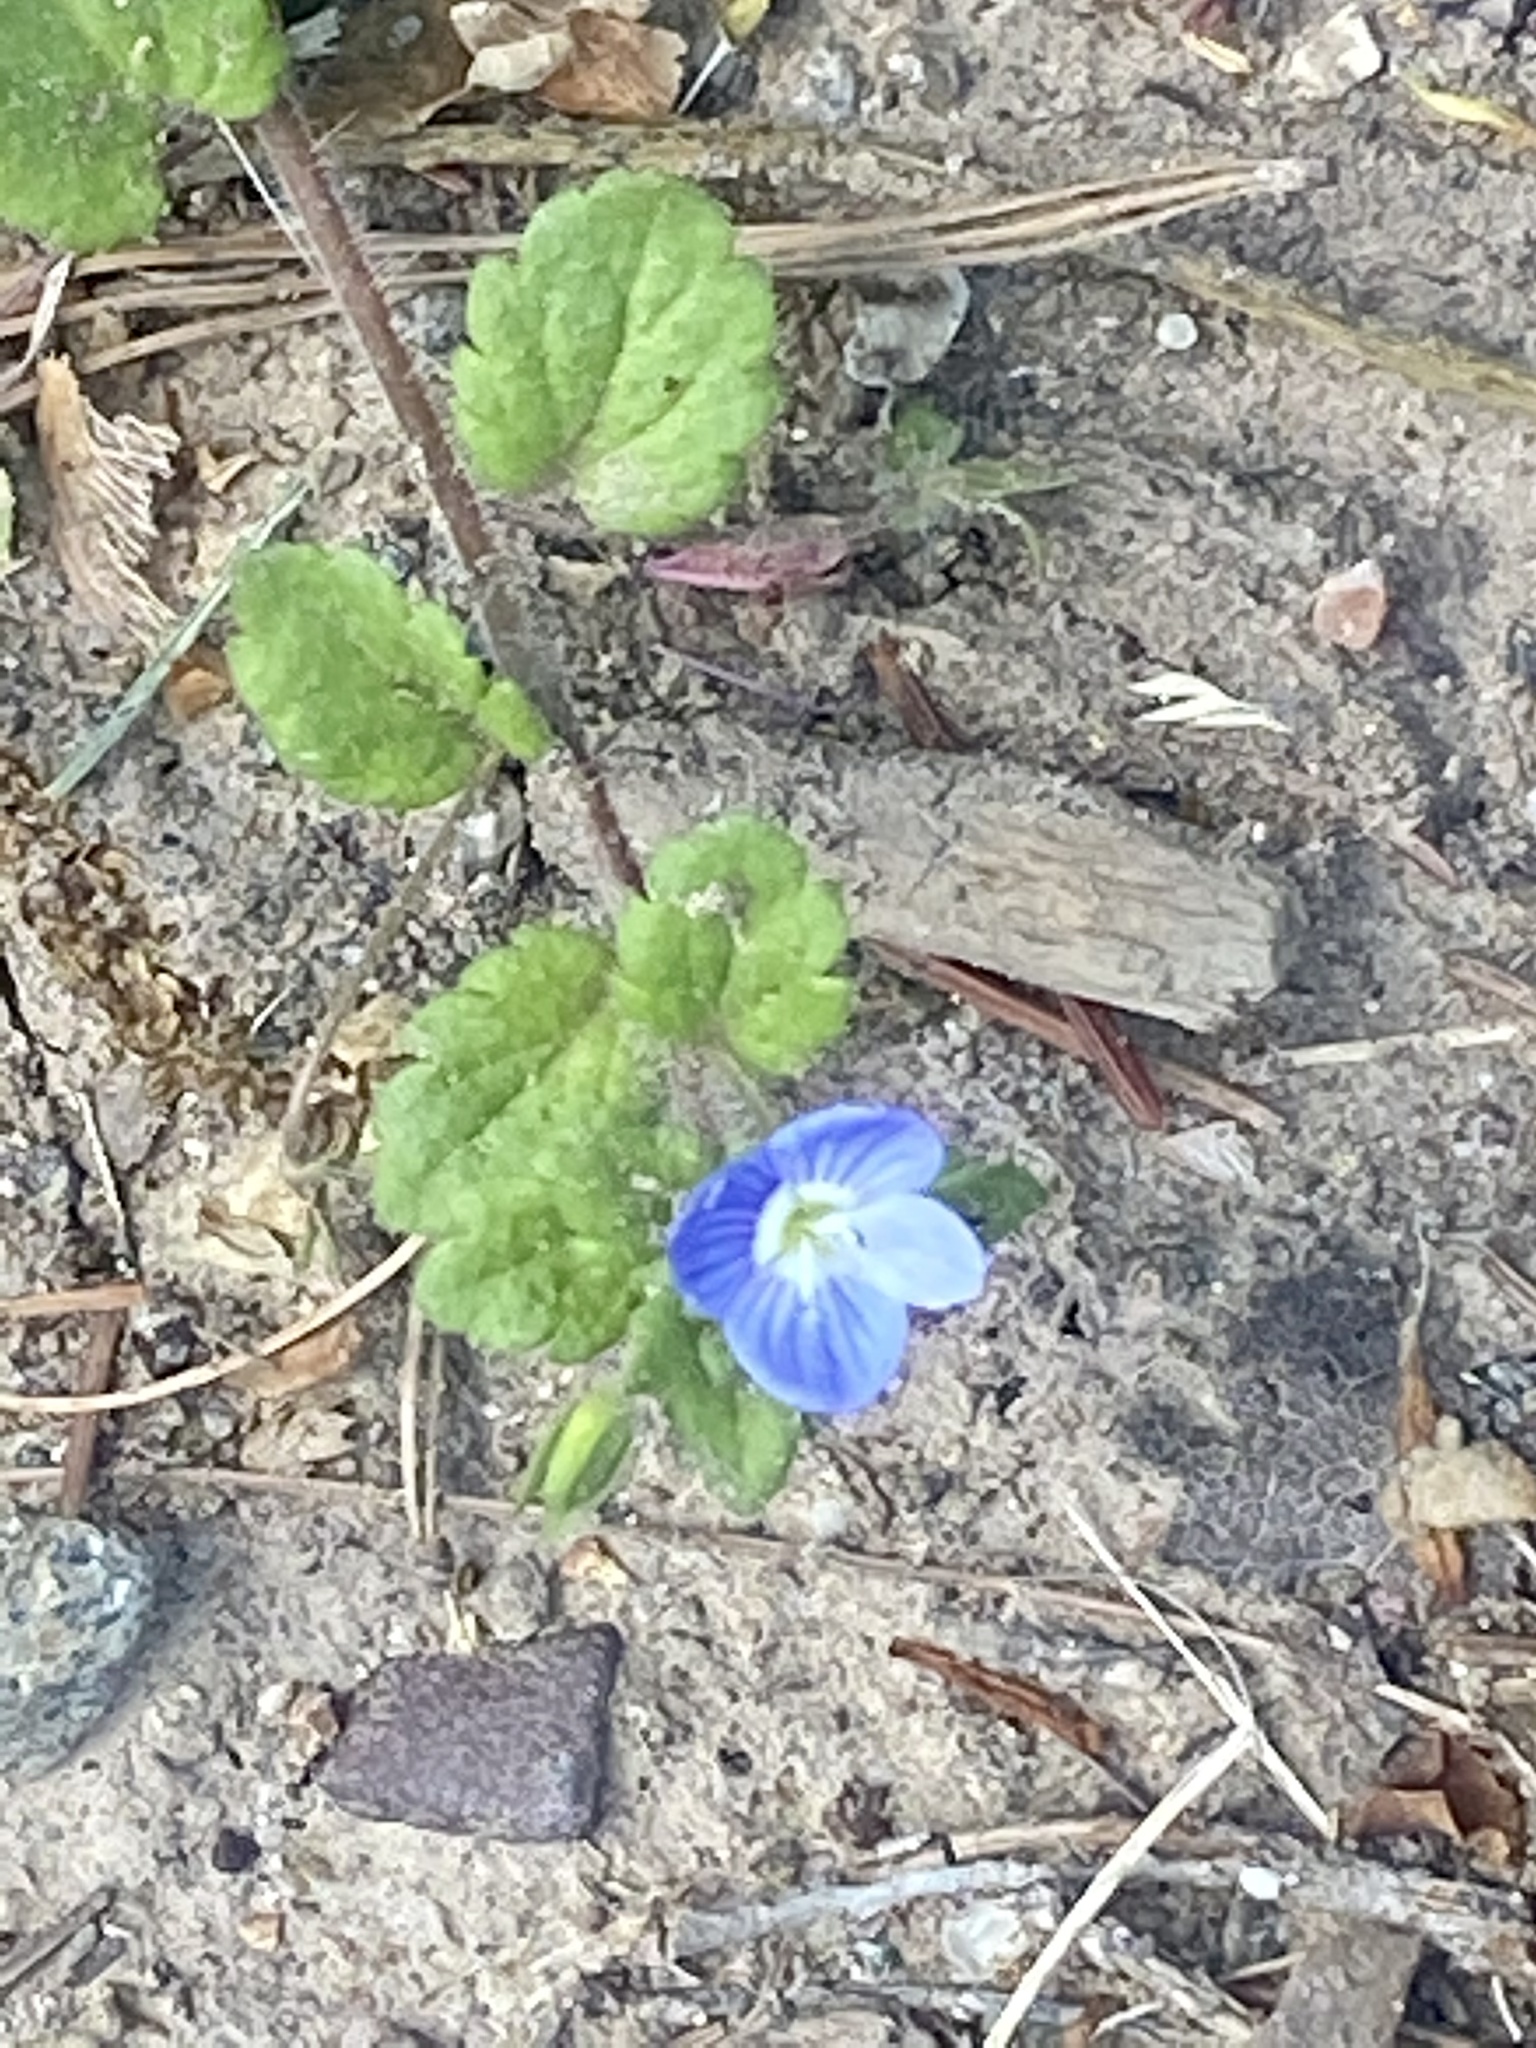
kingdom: Plantae
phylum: Tracheophyta
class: Magnoliopsida
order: Lamiales
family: Plantaginaceae
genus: Veronica
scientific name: Veronica persica
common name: Common field-speedwell
